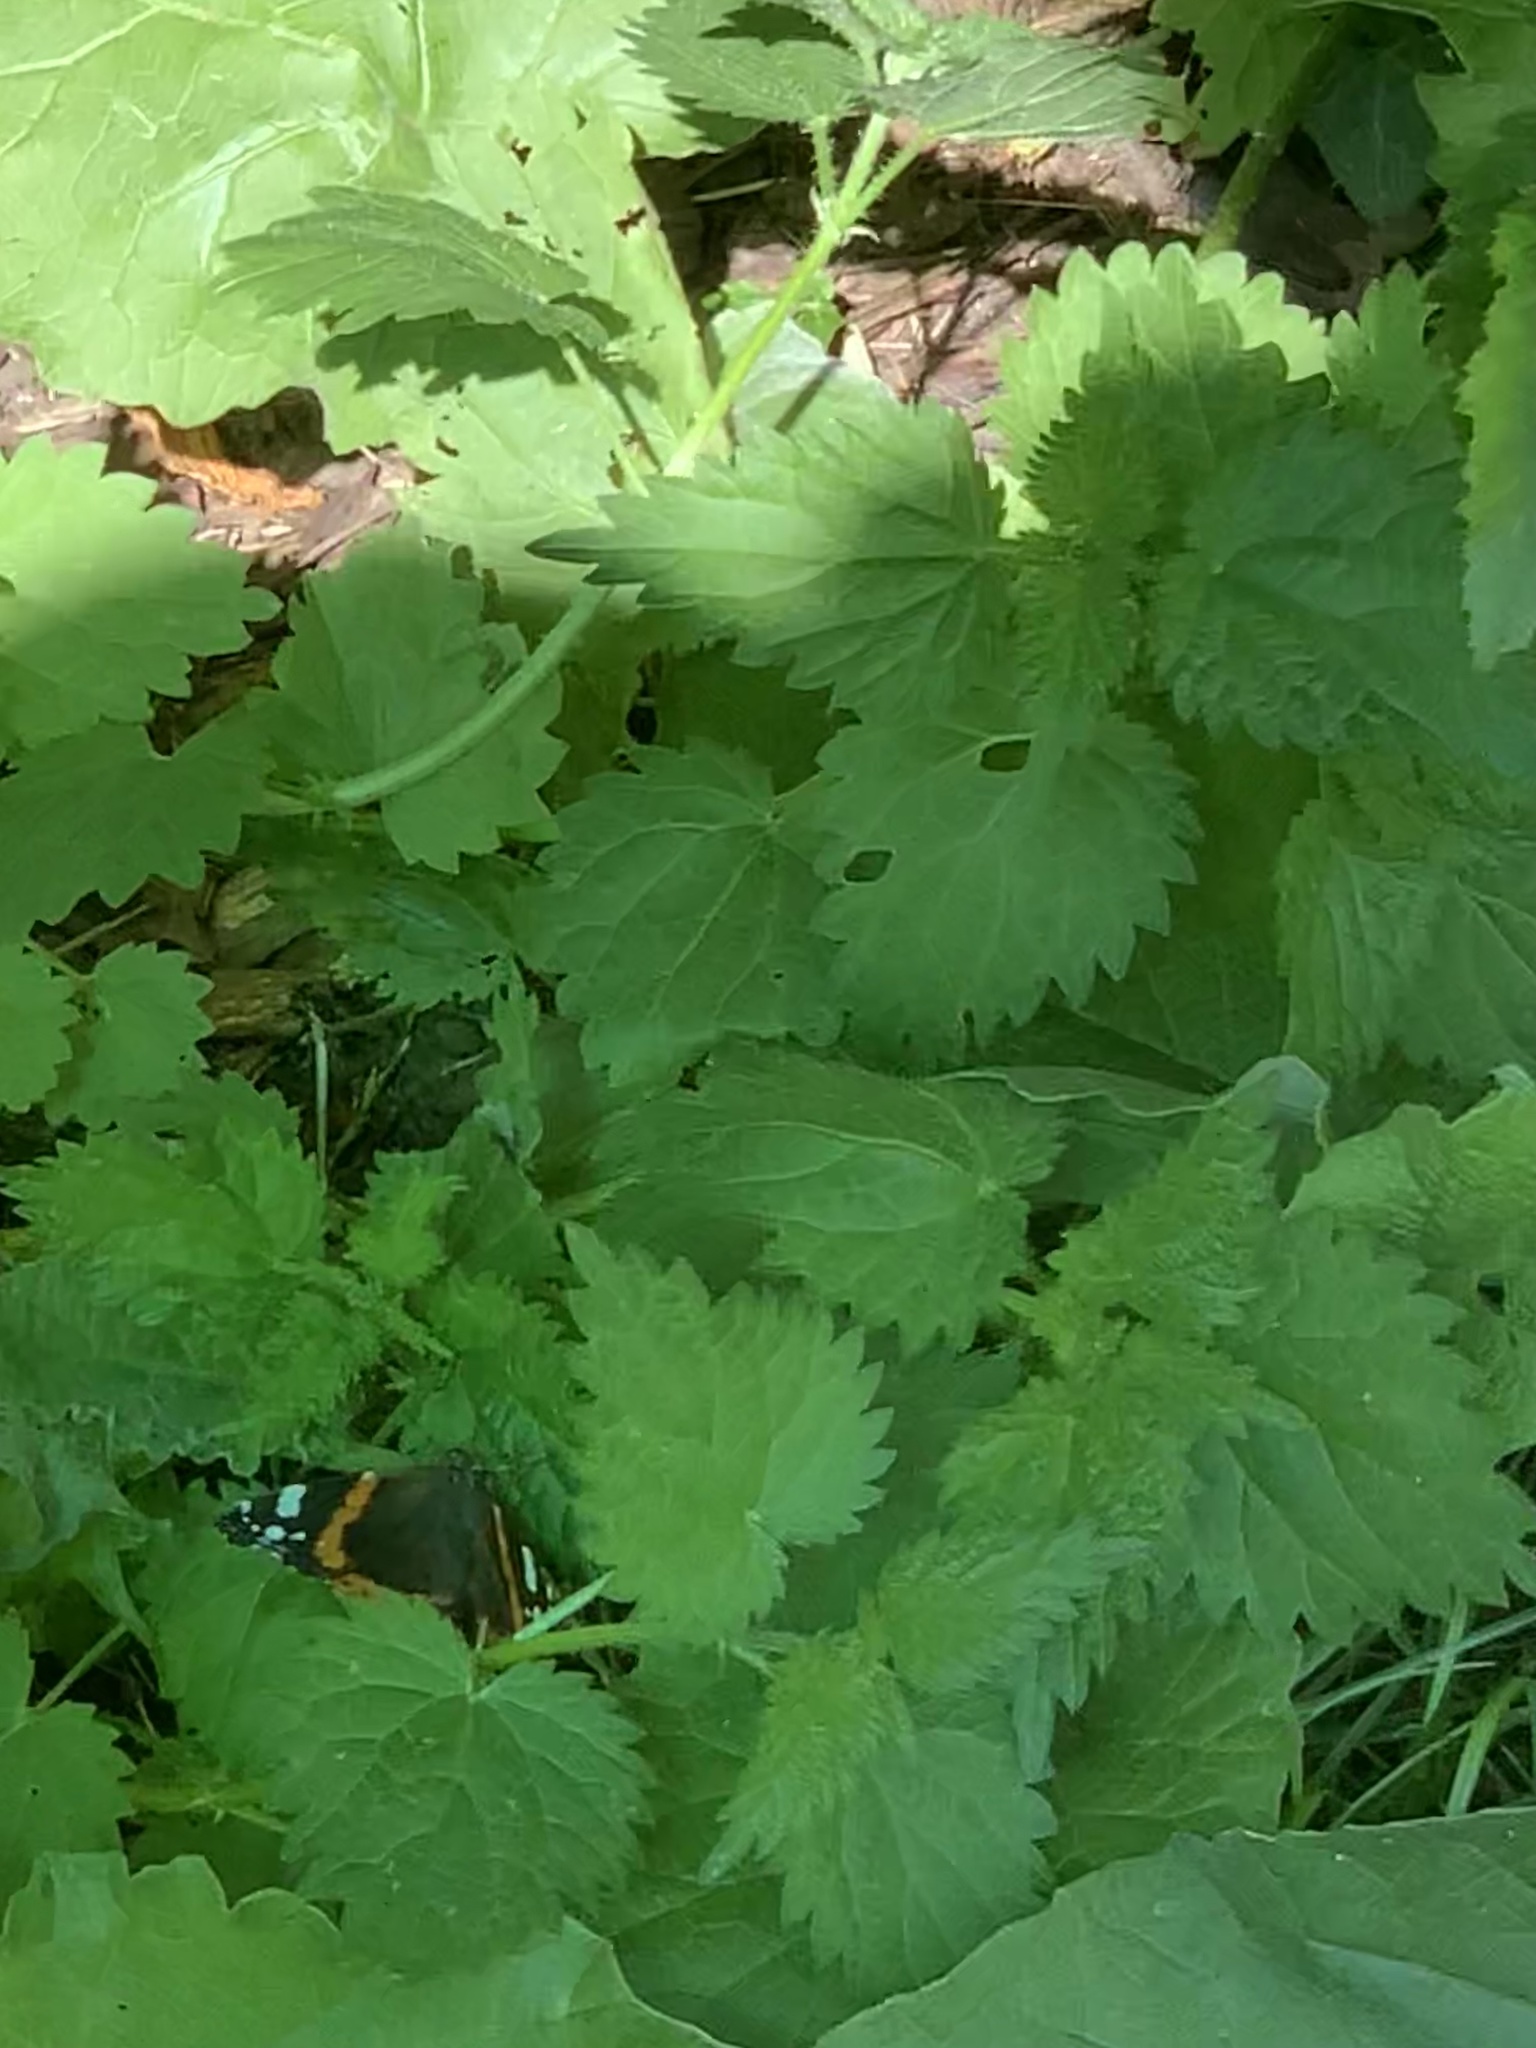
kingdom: Animalia
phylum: Arthropoda
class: Insecta
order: Lepidoptera
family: Nymphalidae
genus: Vanessa
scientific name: Vanessa atalanta
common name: Red admiral
